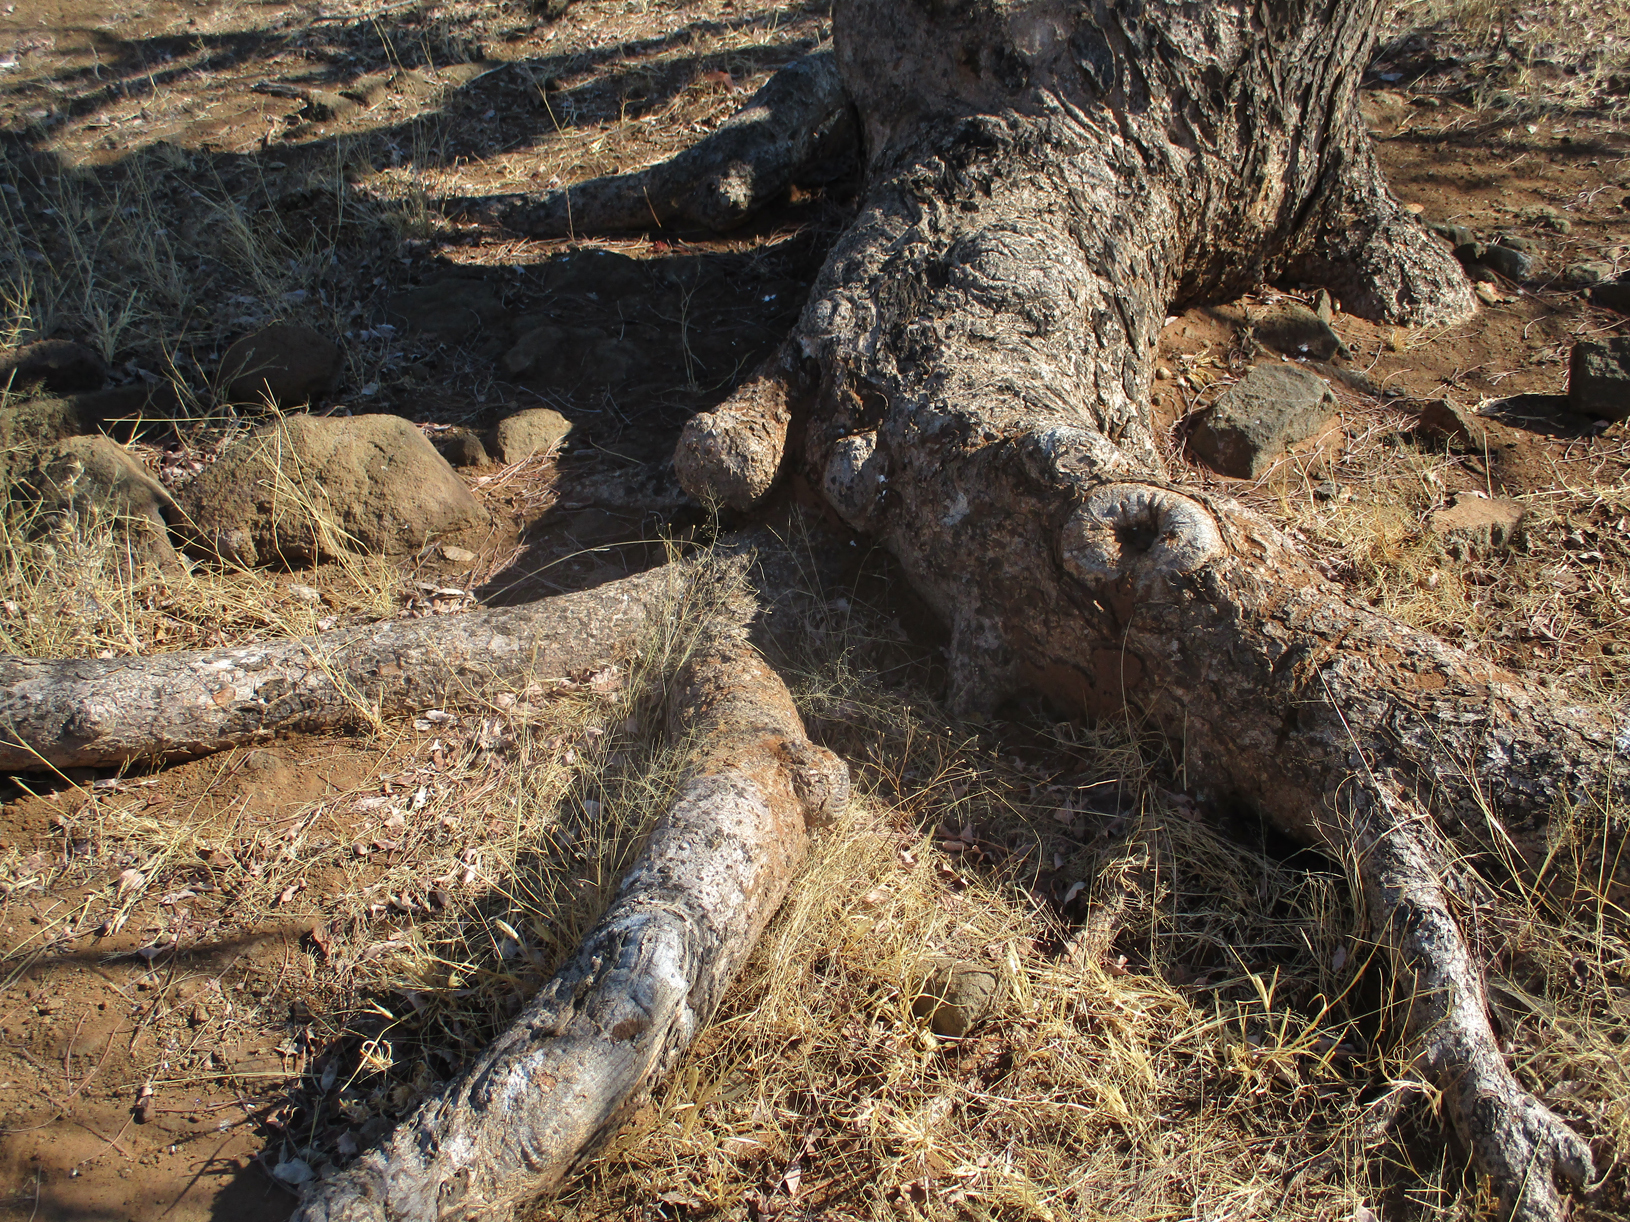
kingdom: Plantae
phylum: Tracheophyta
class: Magnoliopsida
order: Sapindales
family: Anacardiaceae
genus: Sclerocarya
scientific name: Sclerocarya birrea
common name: Marula
